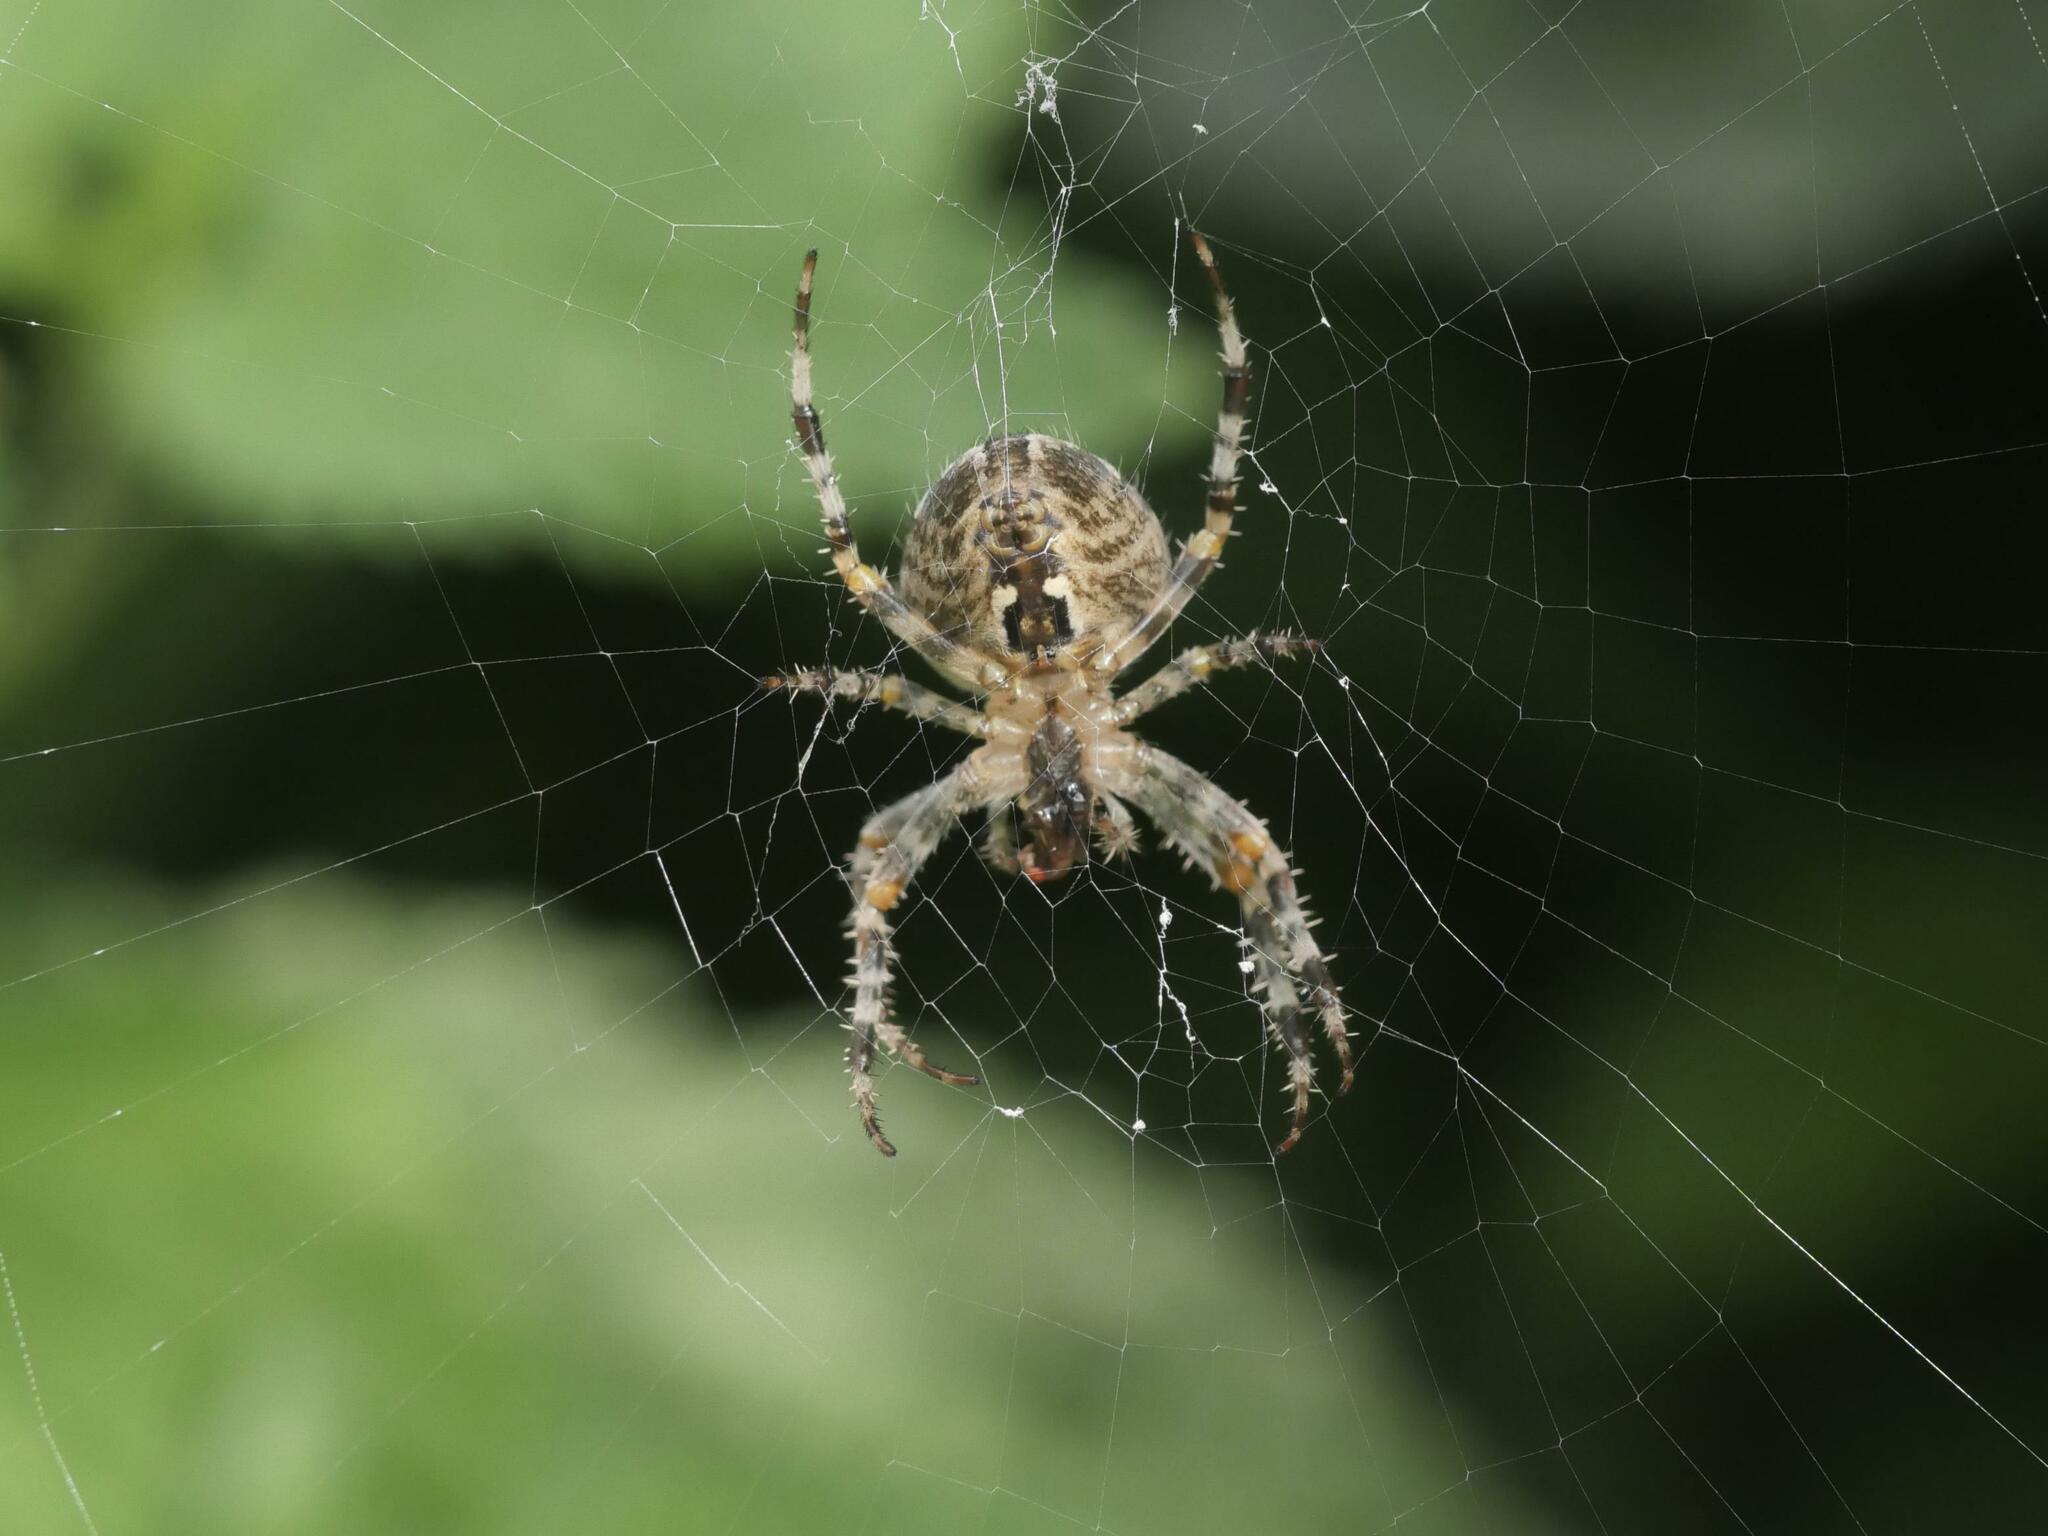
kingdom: Animalia
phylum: Arthropoda
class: Arachnida
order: Araneae
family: Araneidae
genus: Araneus
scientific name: Araneus diadematus
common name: Cross orbweaver
